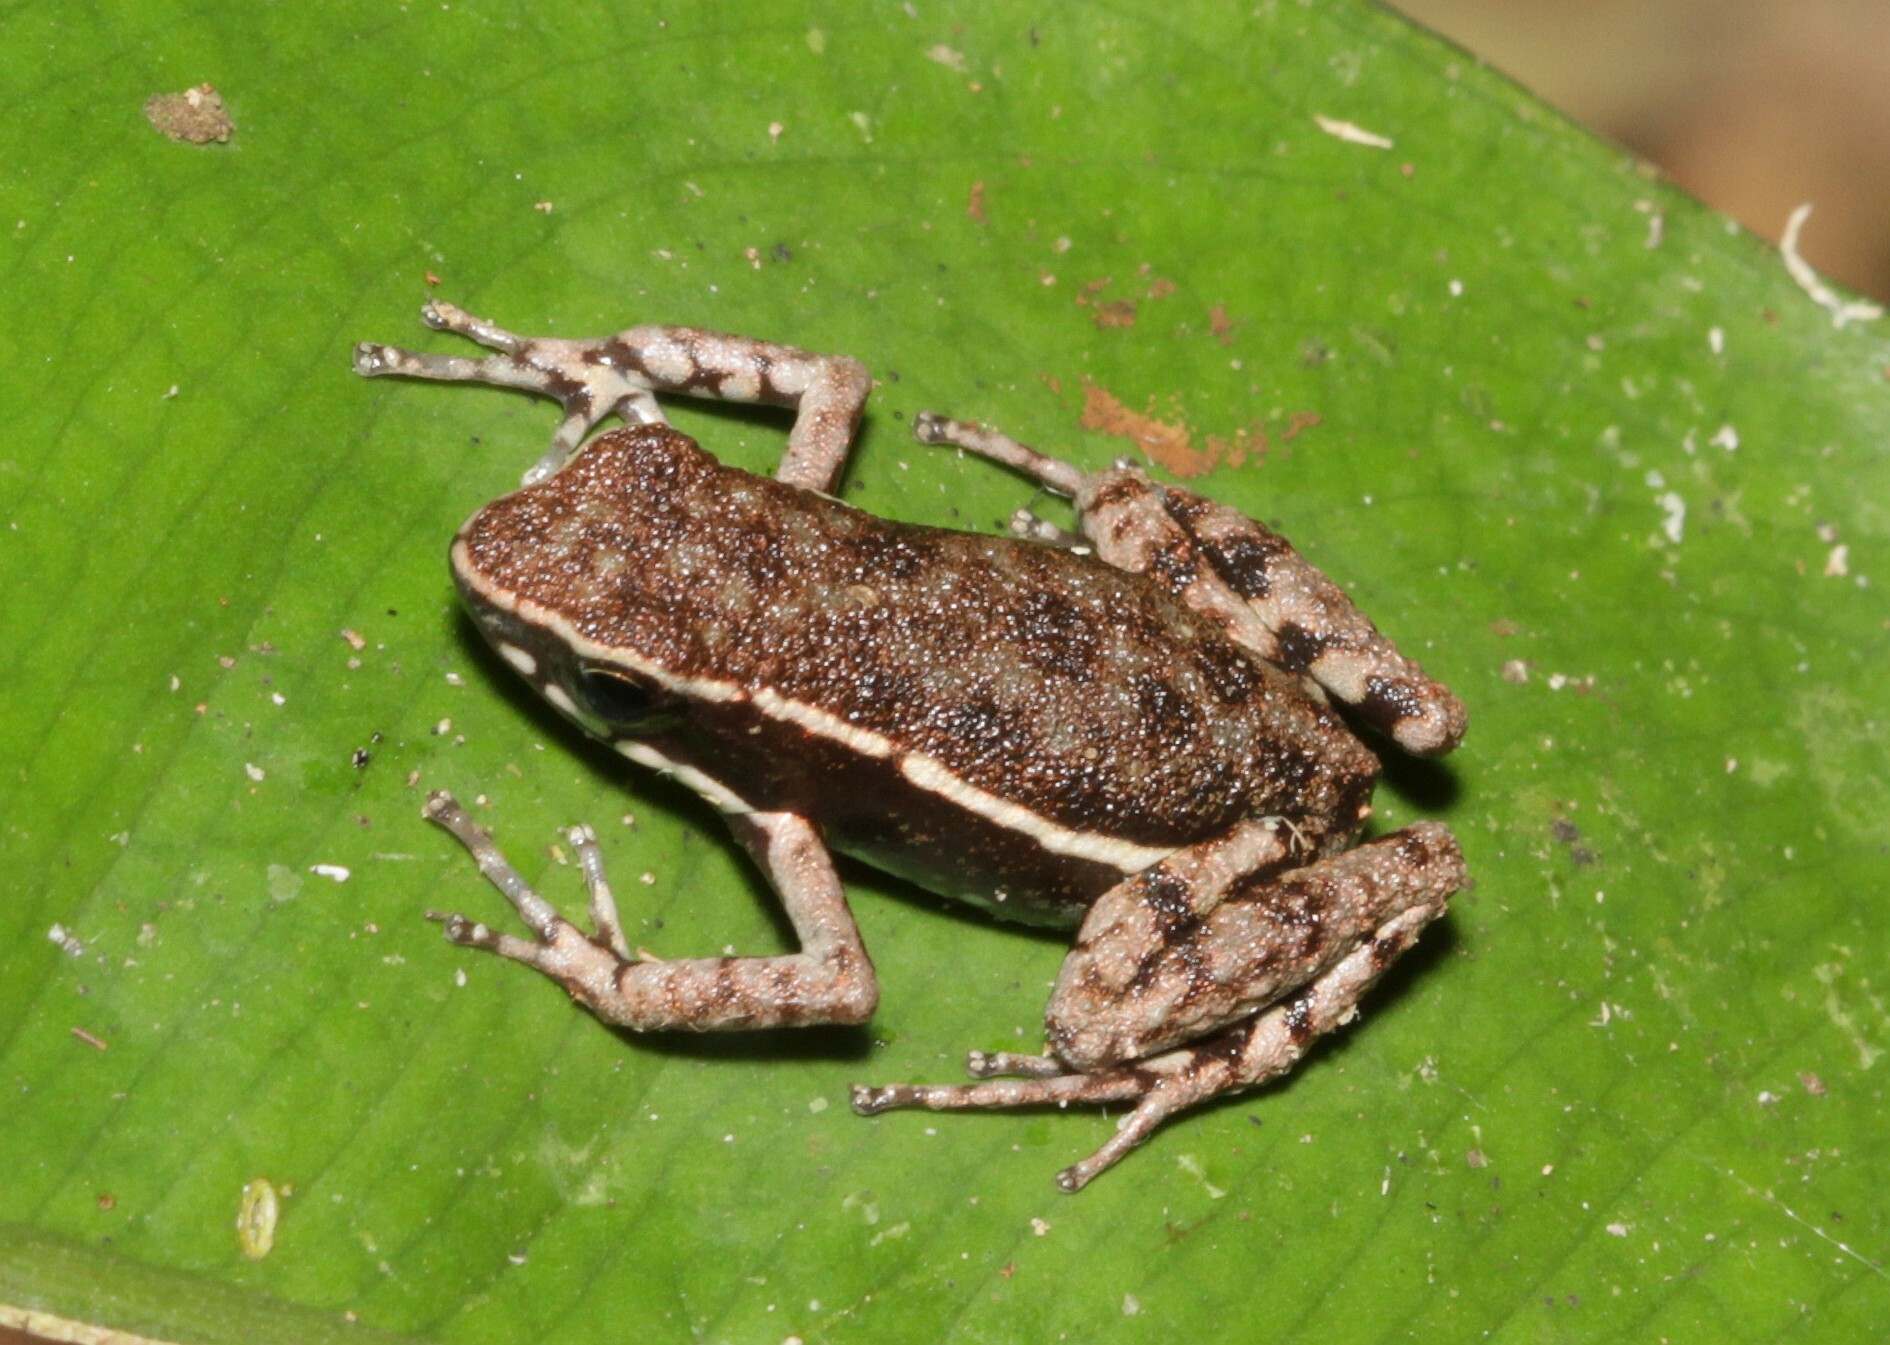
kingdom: Animalia
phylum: Chordata
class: Amphibia
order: Anura
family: Dendrobatidae
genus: Ameerega
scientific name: Ameerega hahneli
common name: Yurimaguas pioson frog
